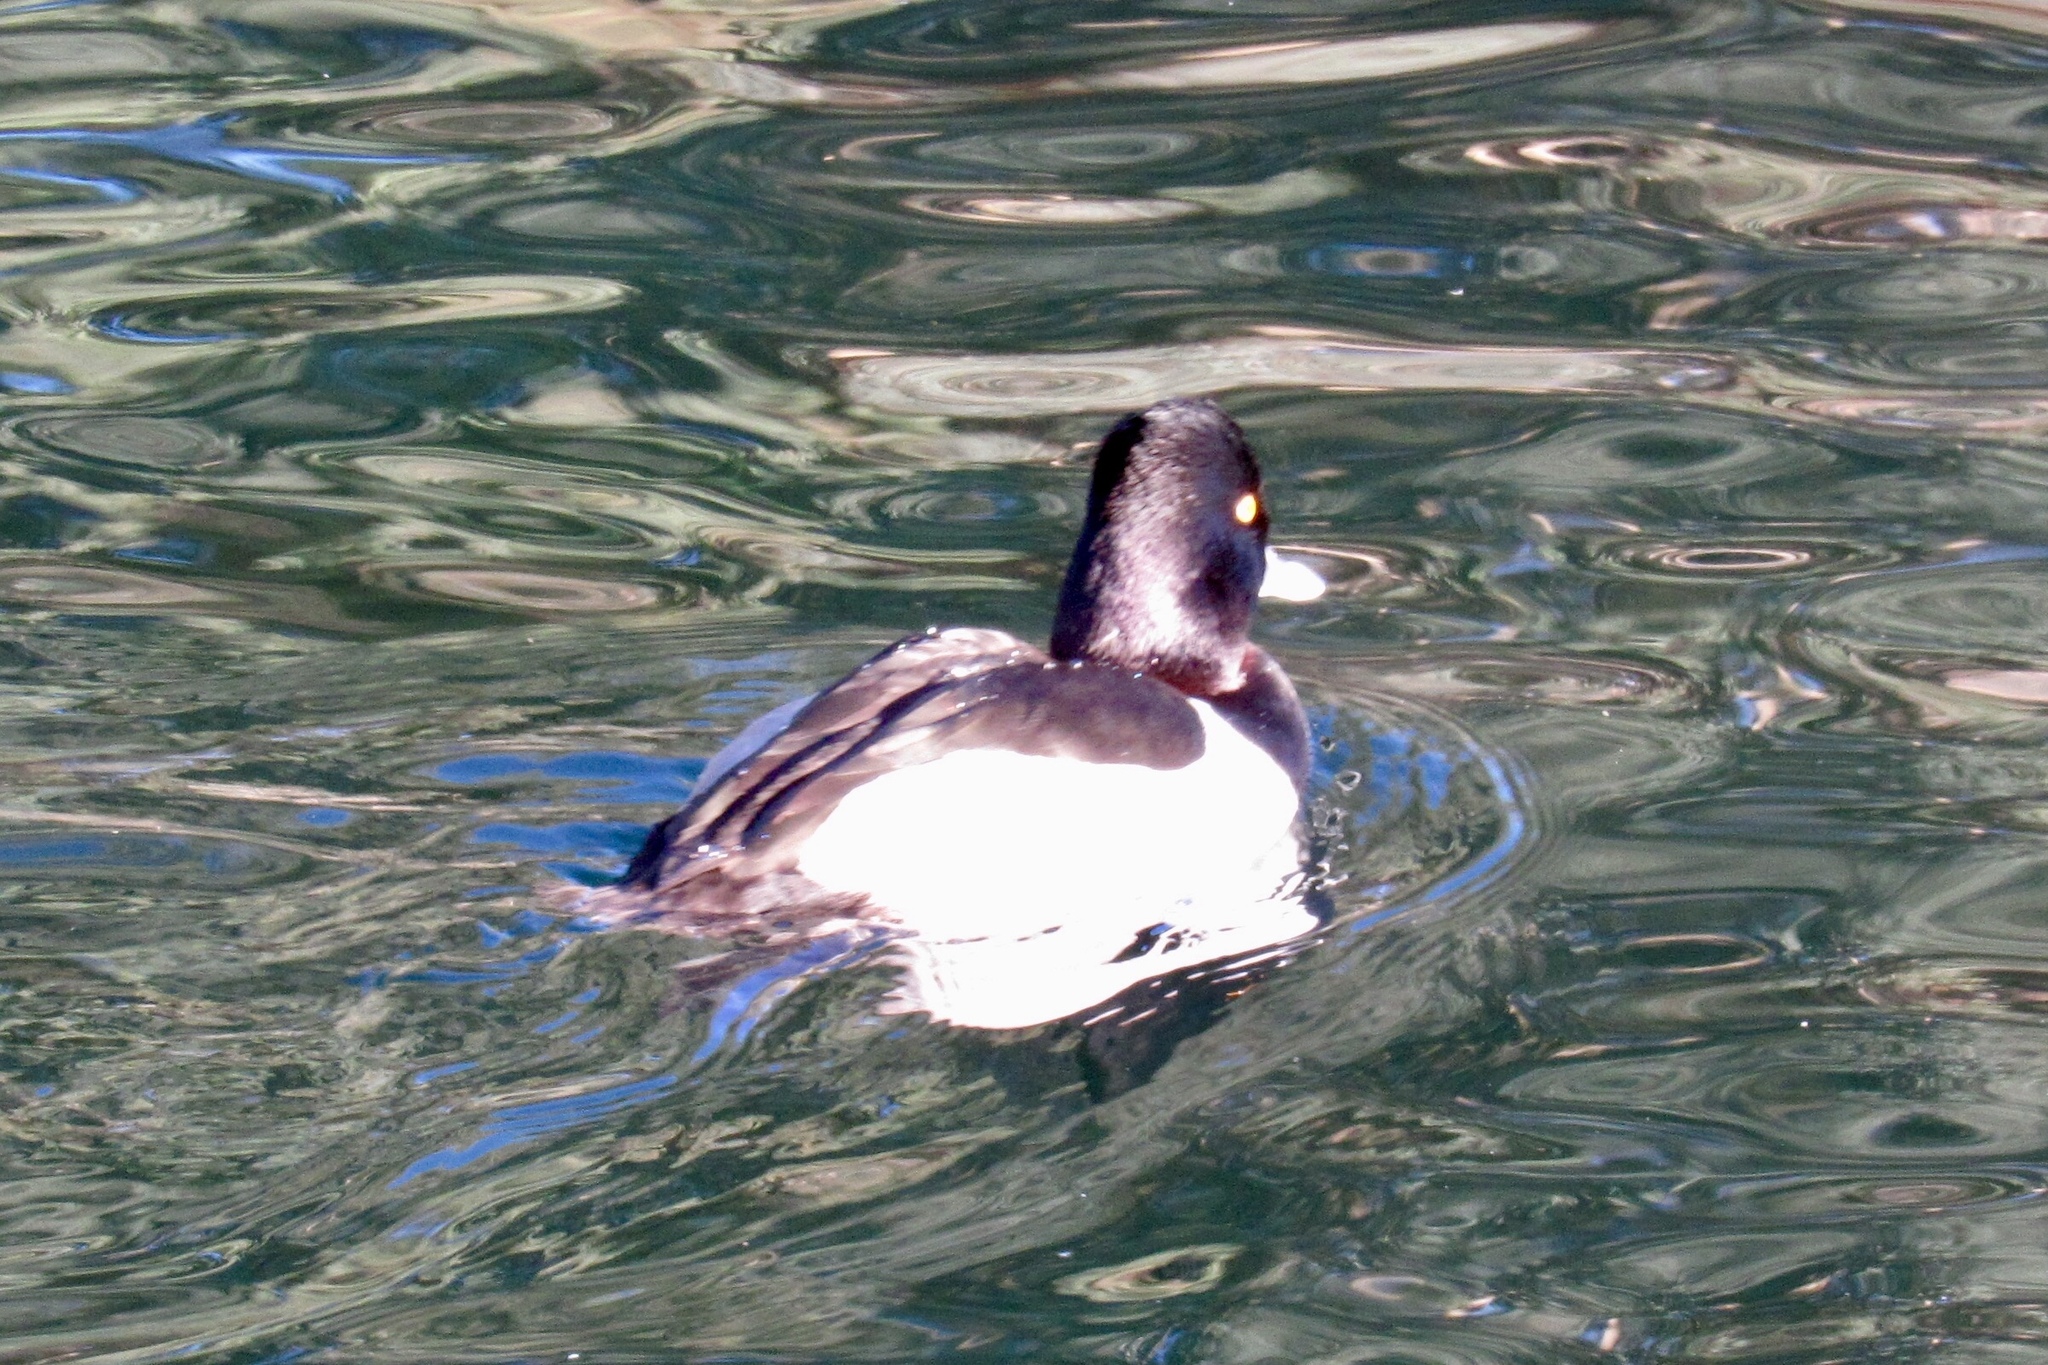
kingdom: Animalia
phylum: Chordata
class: Aves
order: Anseriformes
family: Anatidae
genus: Aythya
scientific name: Aythya collaris
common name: Ring-necked duck
